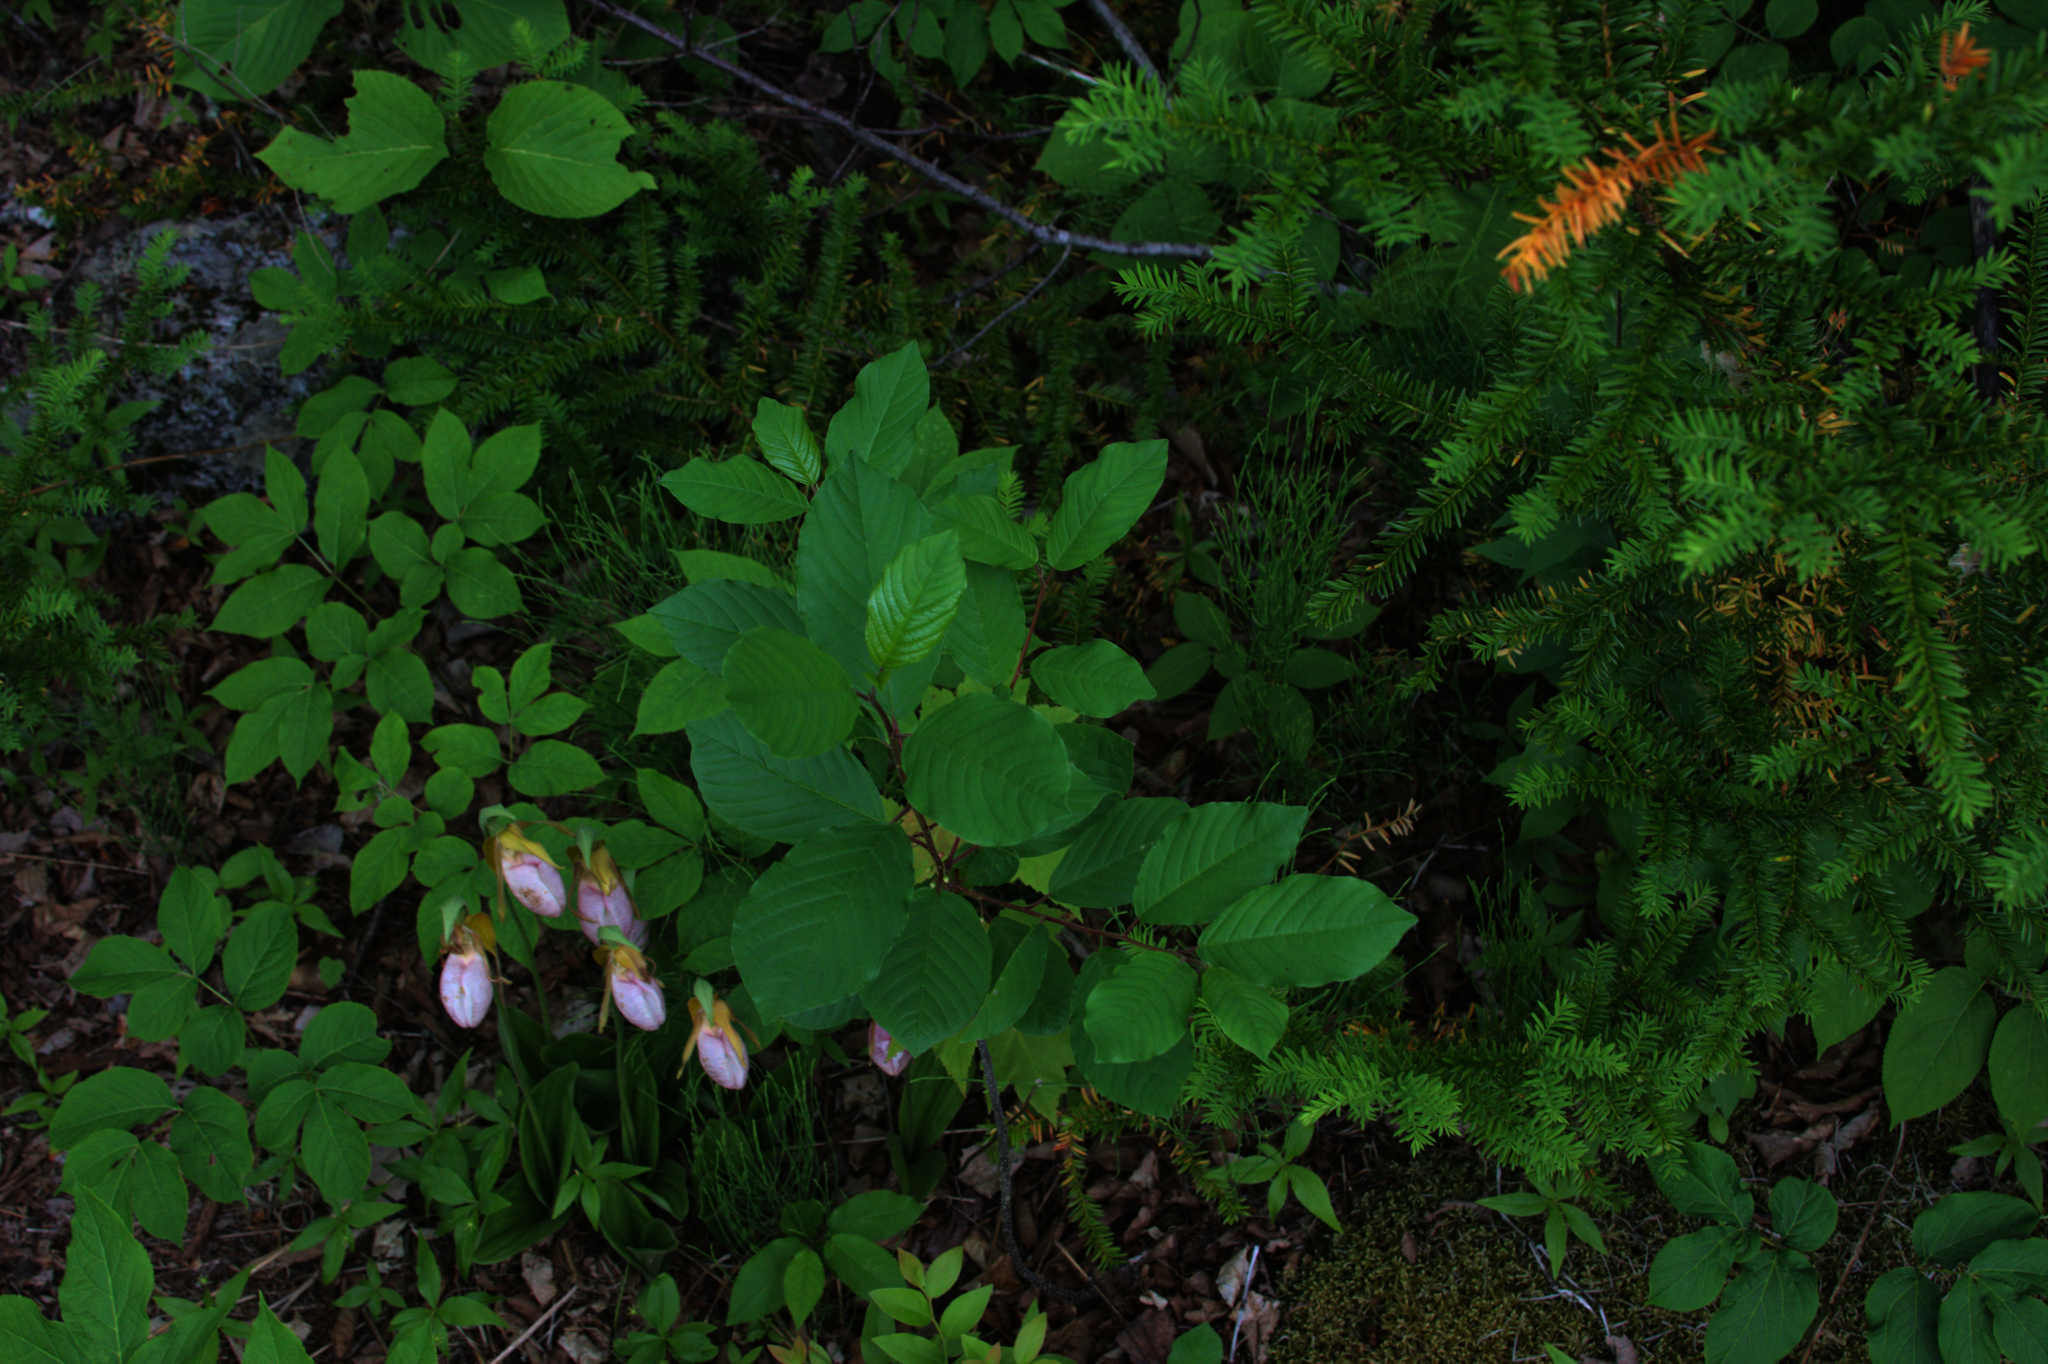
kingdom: Plantae
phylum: Tracheophyta
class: Magnoliopsida
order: Rosales
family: Rhamnaceae
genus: Frangula
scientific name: Frangula alnus
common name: Alder buckthorn
